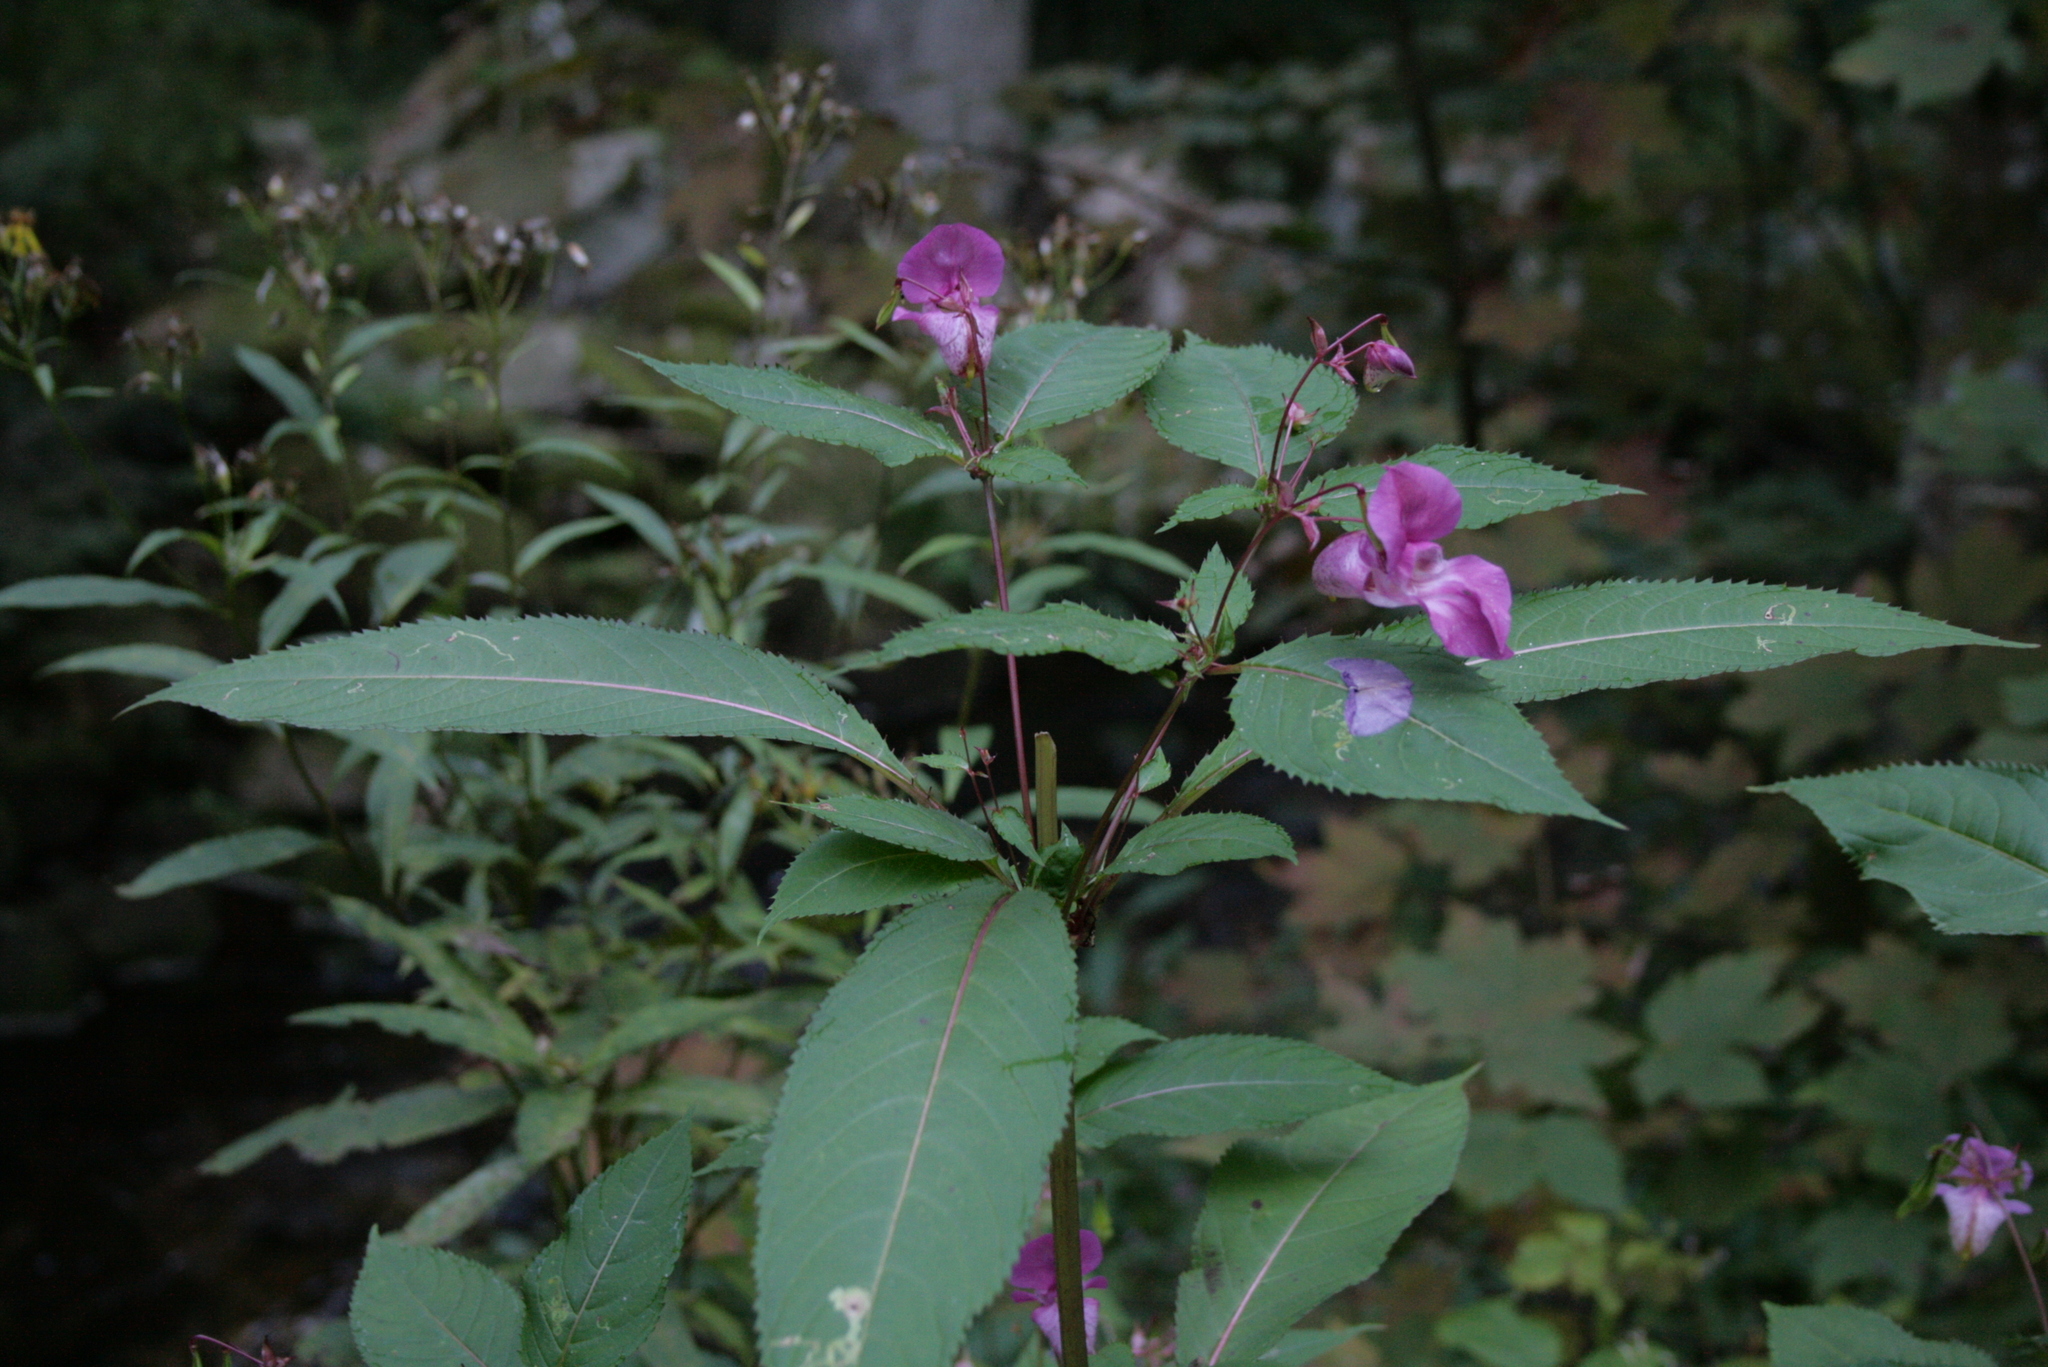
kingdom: Plantae
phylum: Tracheophyta
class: Magnoliopsida
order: Ericales
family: Balsaminaceae
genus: Impatiens
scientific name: Impatiens glandulifera
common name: Himalayan balsam
